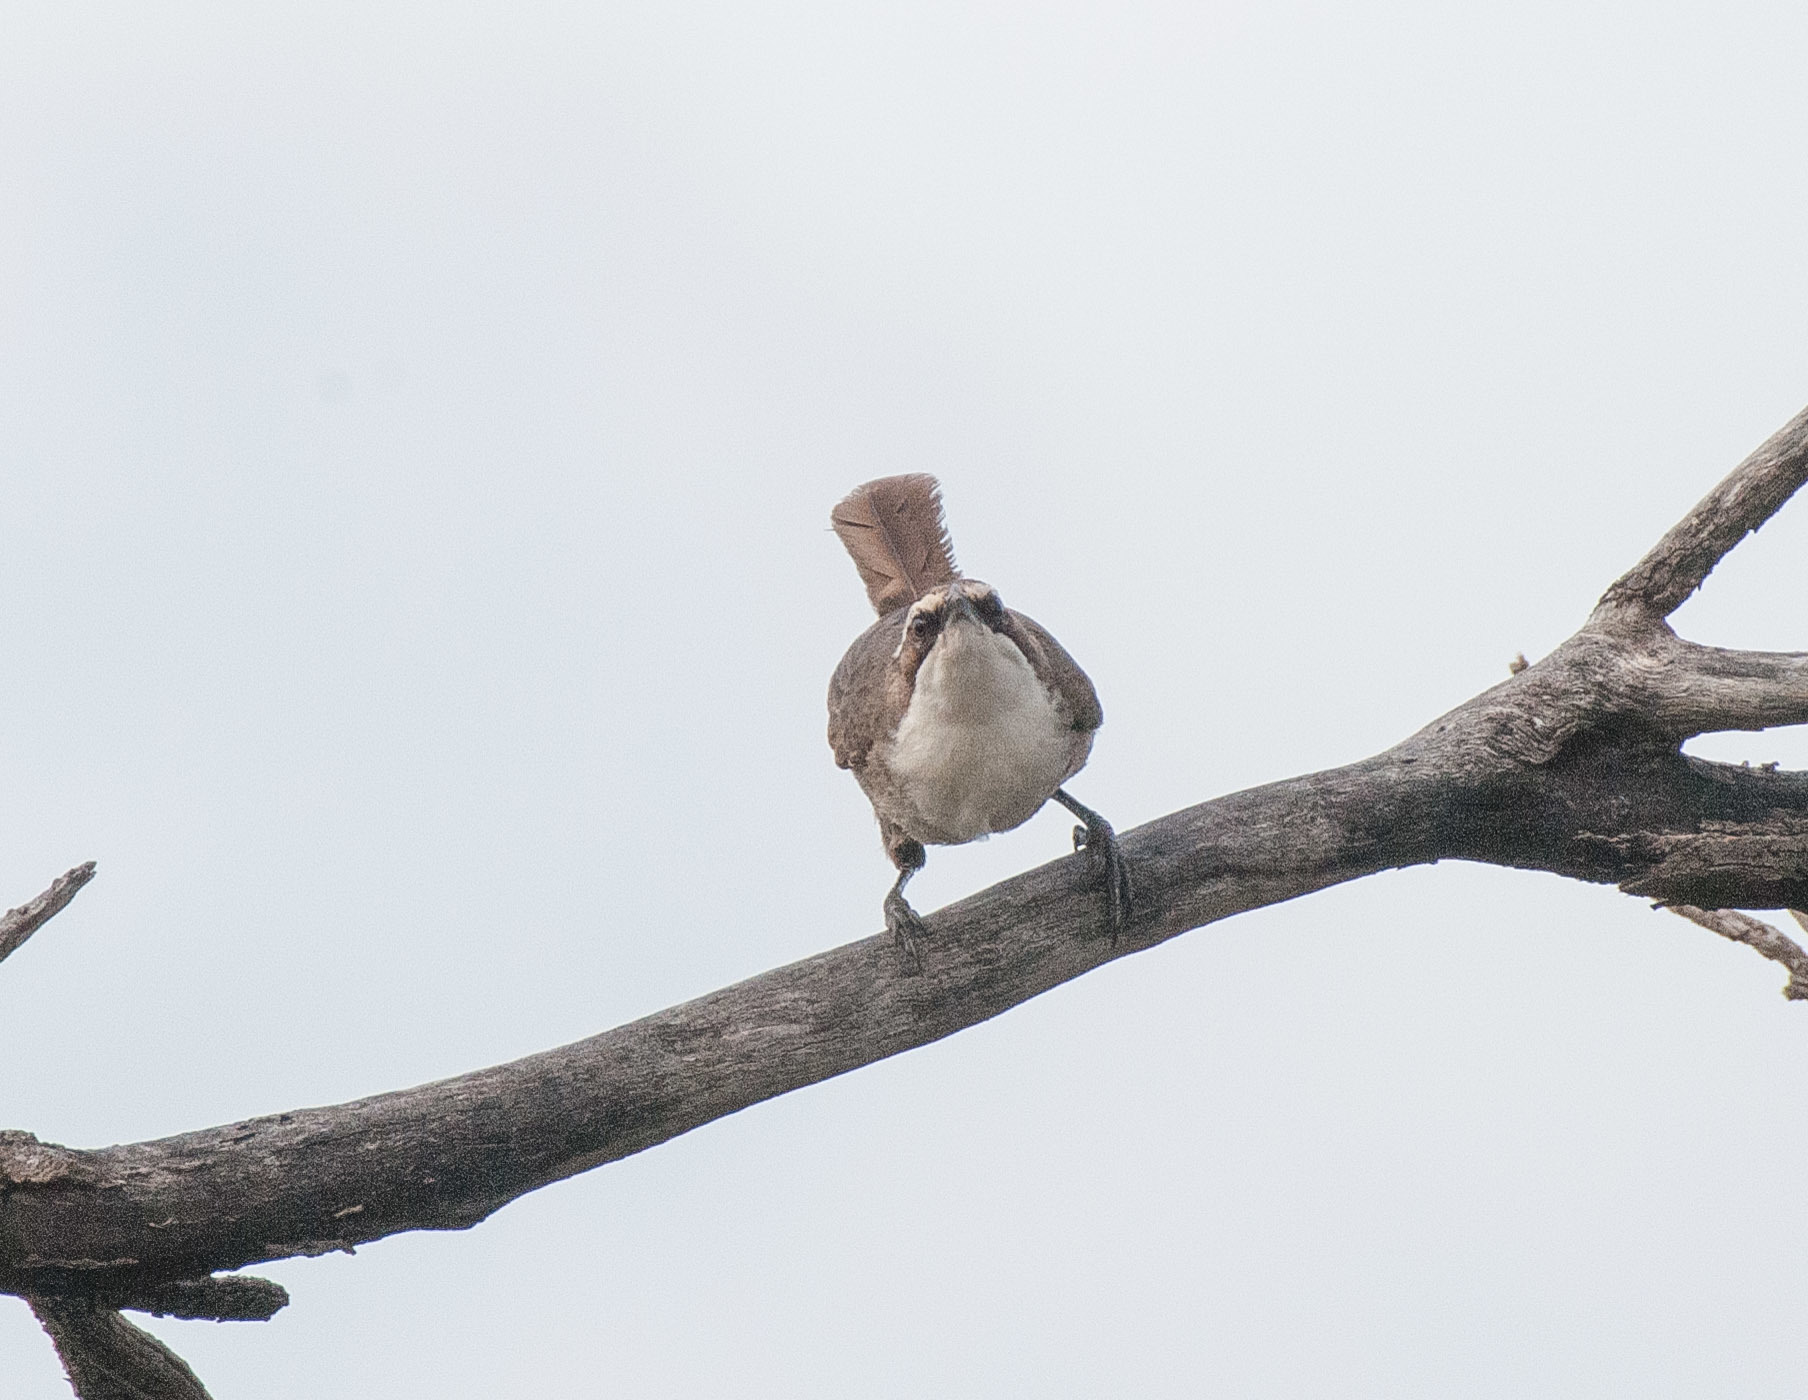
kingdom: Animalia
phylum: Chordata
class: Aves
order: Passeriformes
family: Pomatostomidae
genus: Pomatostomus
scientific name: Pomatostomus superciliosus
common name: White-browed babbler
